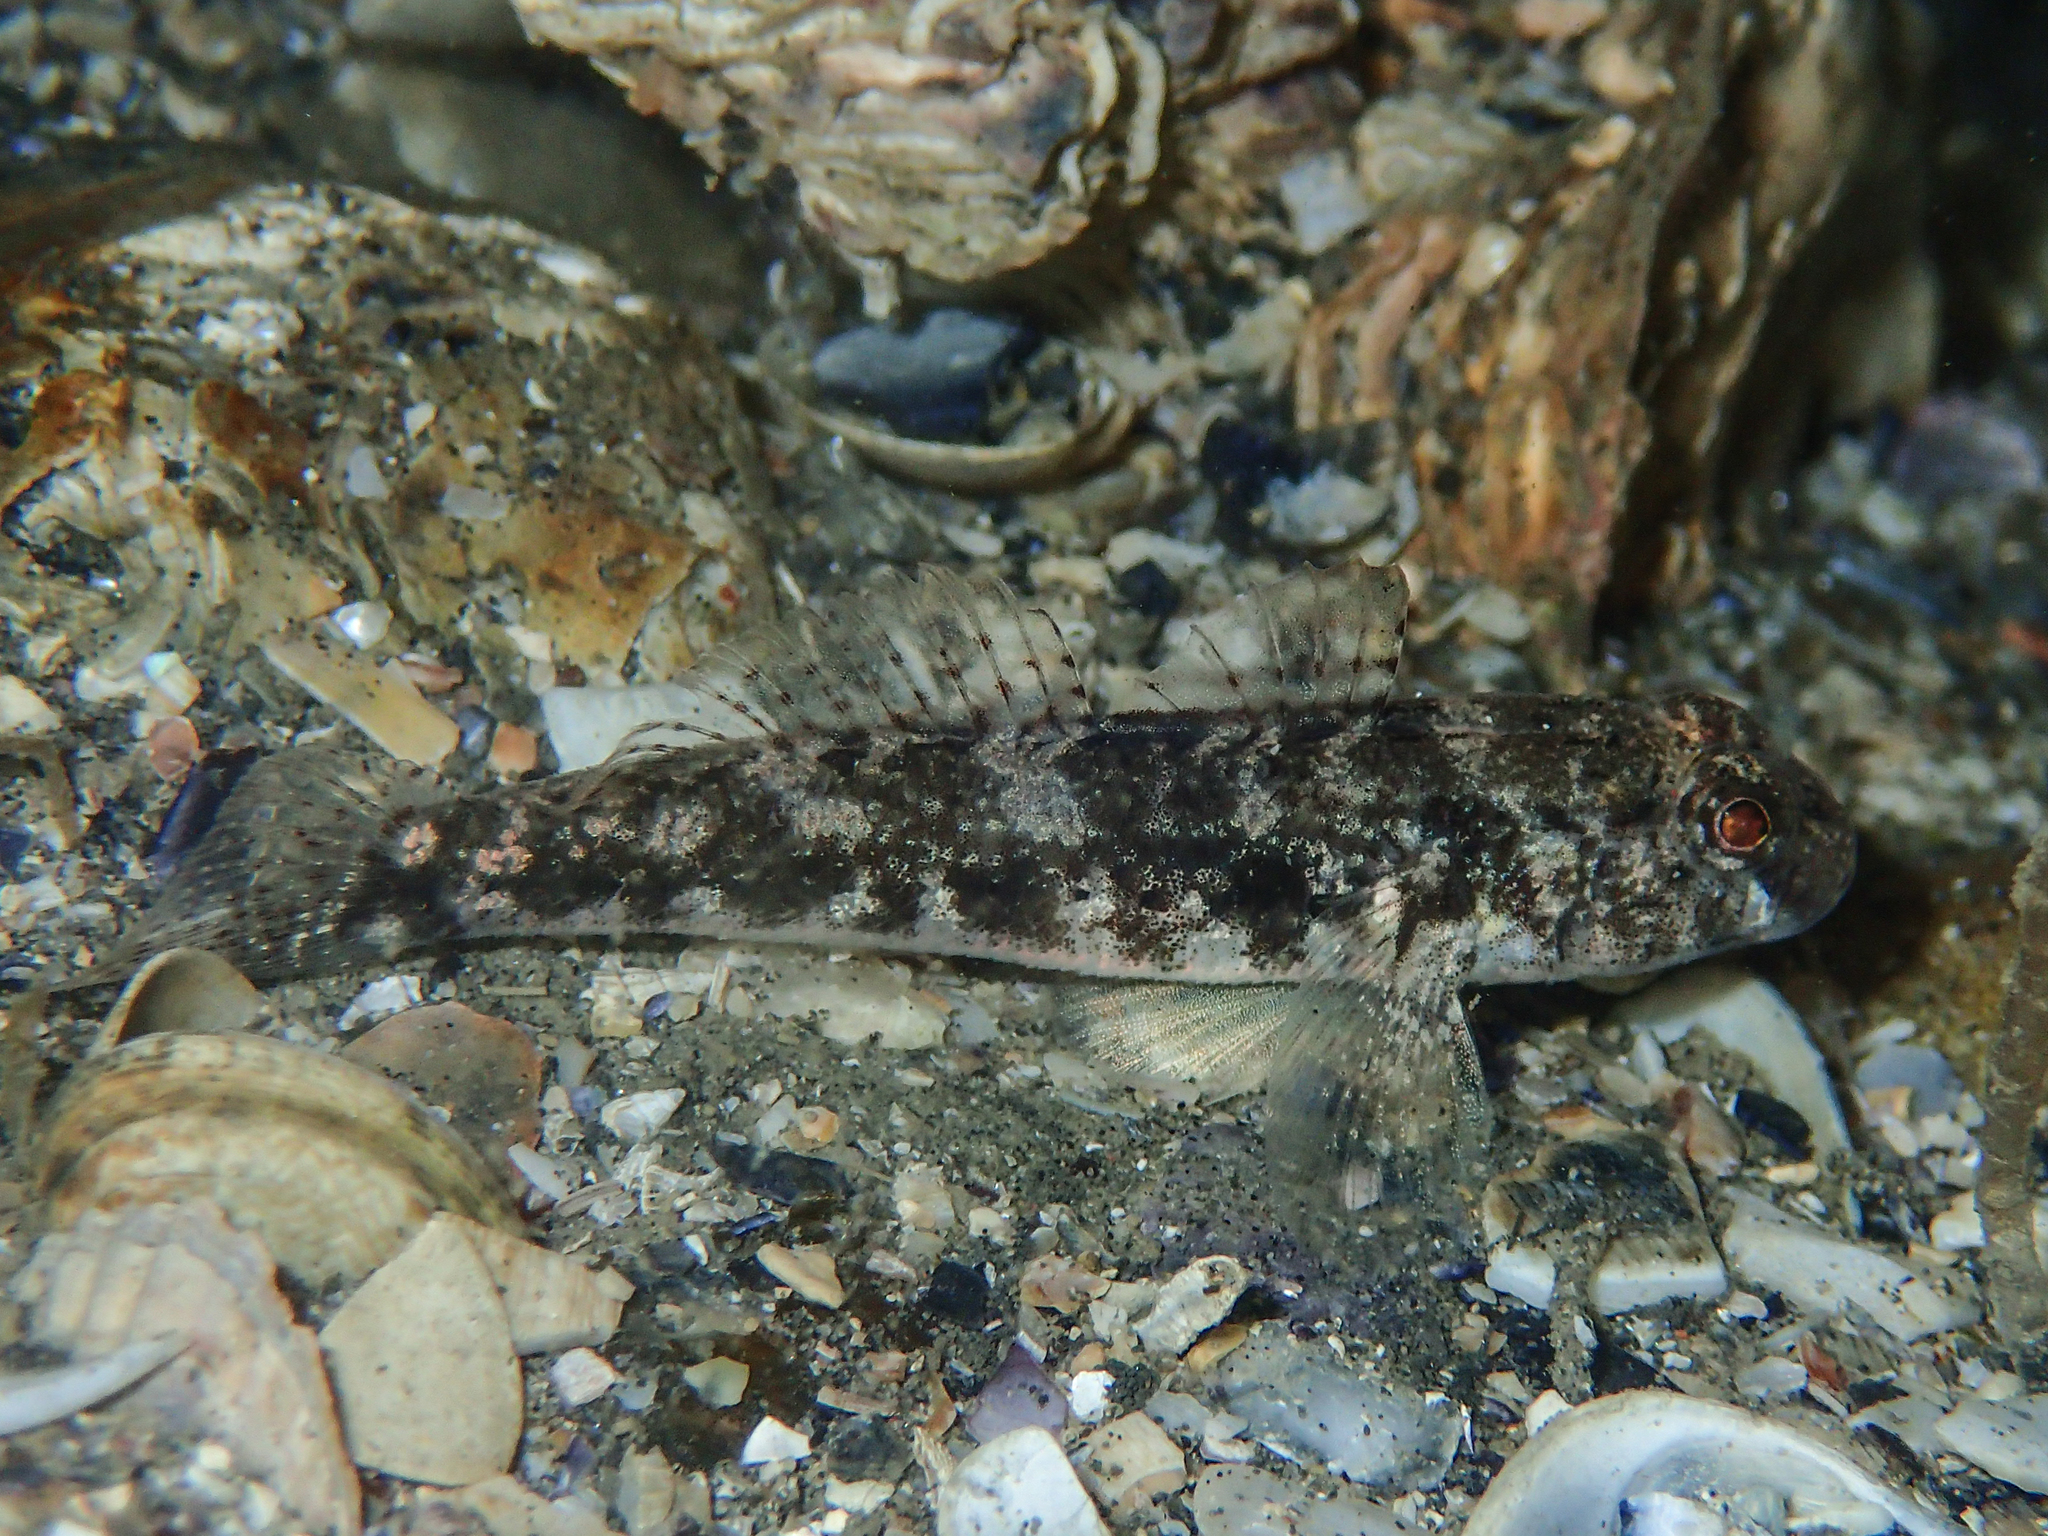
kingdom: Animalia
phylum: Chordata
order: Perciformes
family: Gobiidae
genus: Gobius
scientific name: Gobius niger
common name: Black goby
